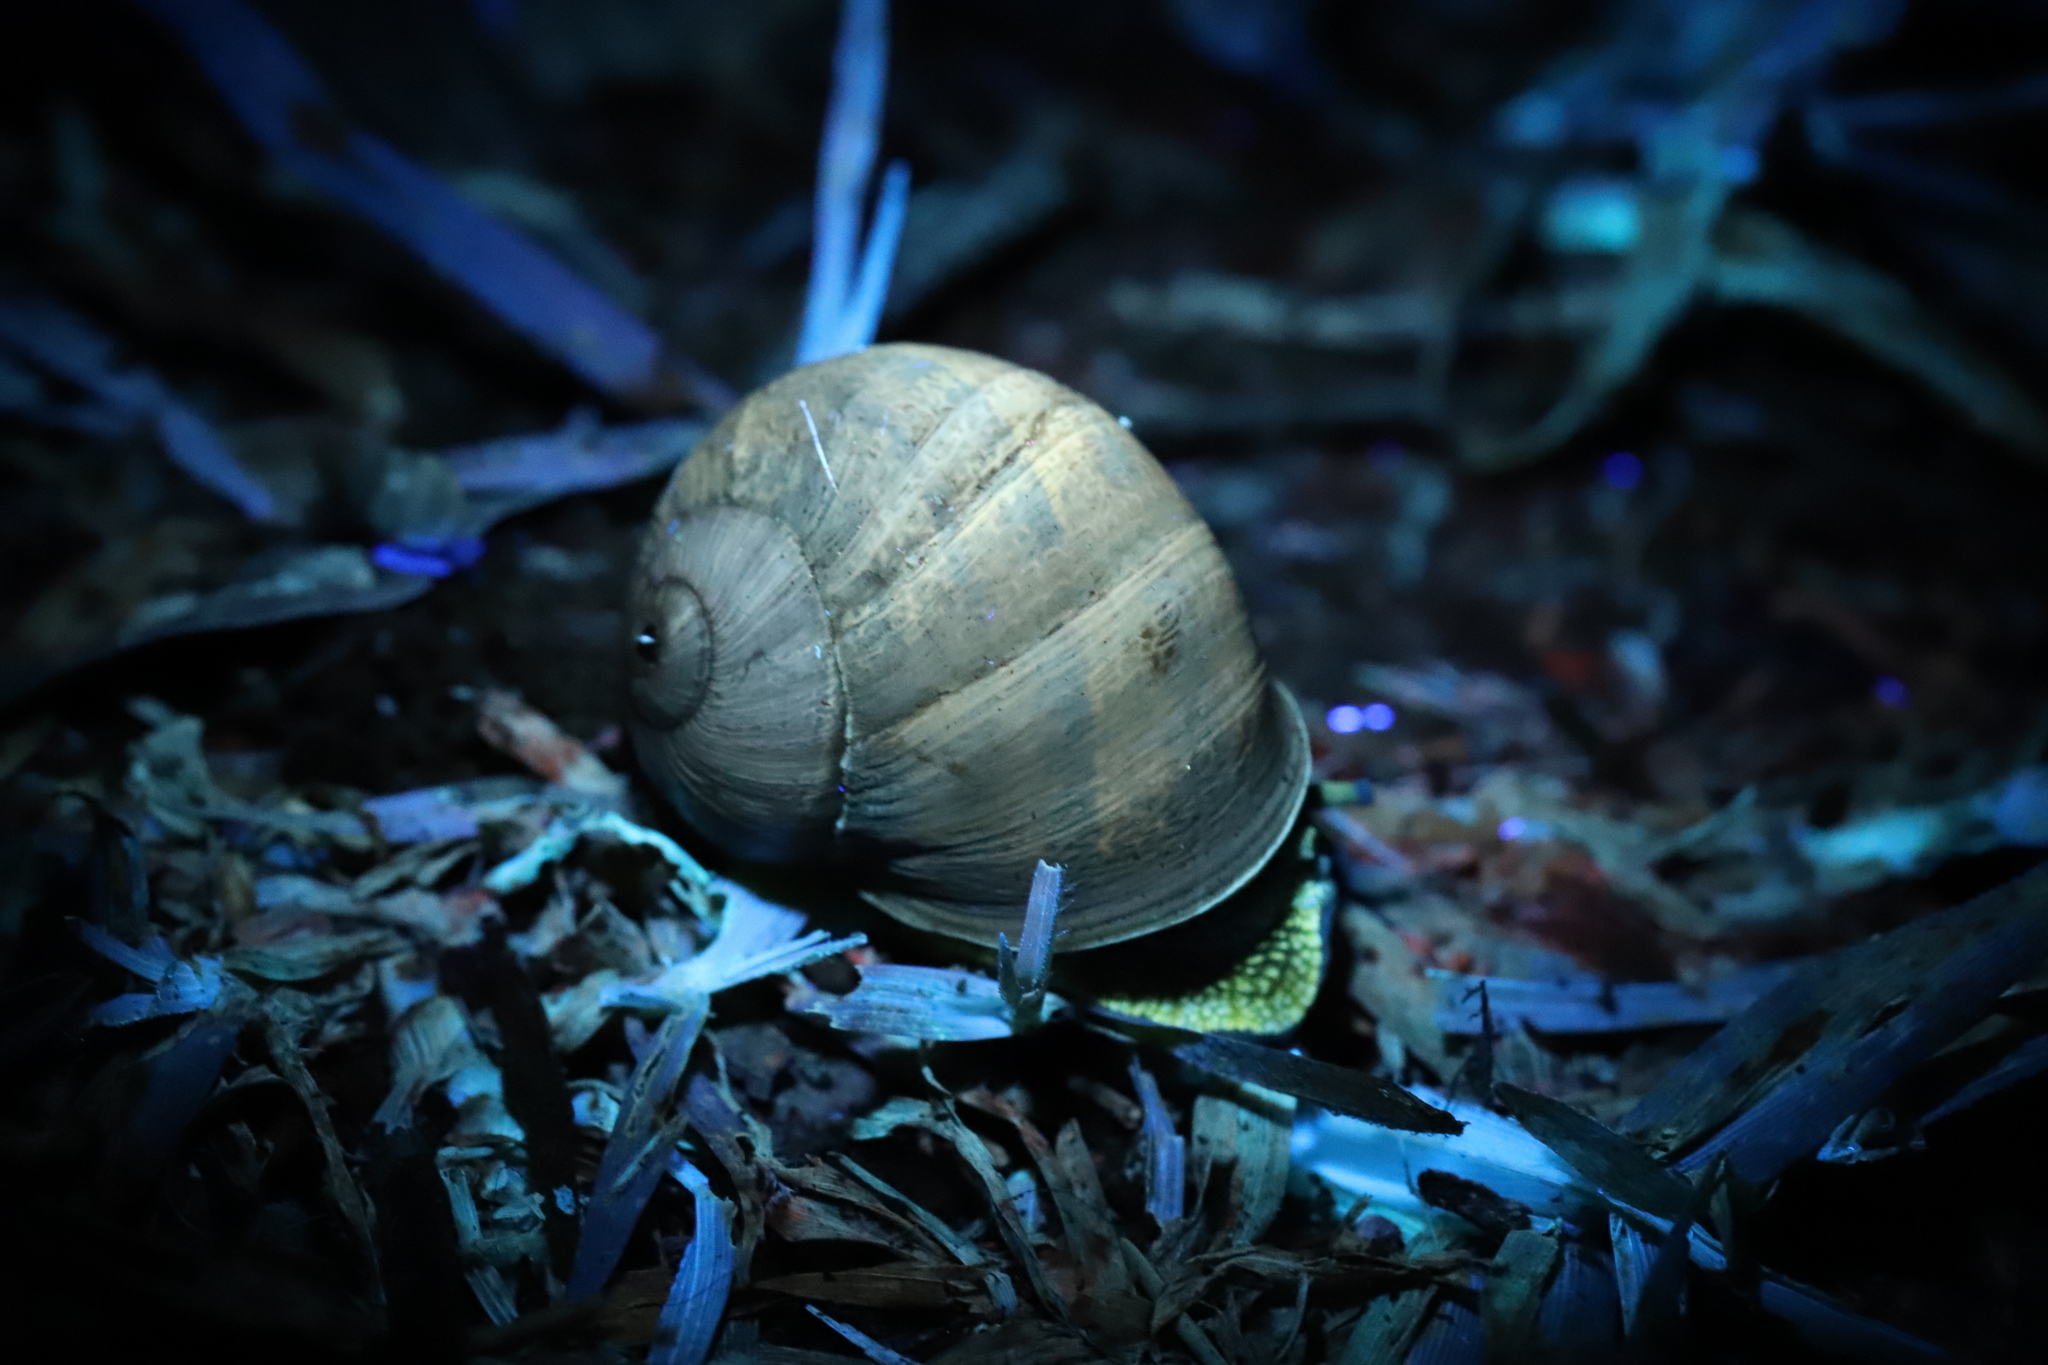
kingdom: Animalia
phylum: Mollusca
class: Gastropoda
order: Stylommatophora
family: Helicidae
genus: Cornu
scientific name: Cornu aspersum
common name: Brown garden snail
